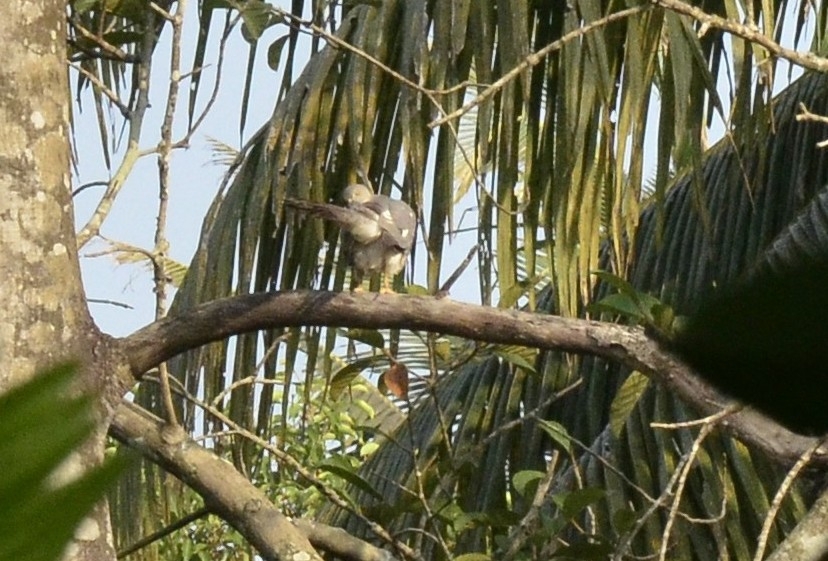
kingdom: Animalia
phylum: Chordata
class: Aves
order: Accipitriformes
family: Accipitridae
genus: Accipiter
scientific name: Accipiter badius
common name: Shikra
